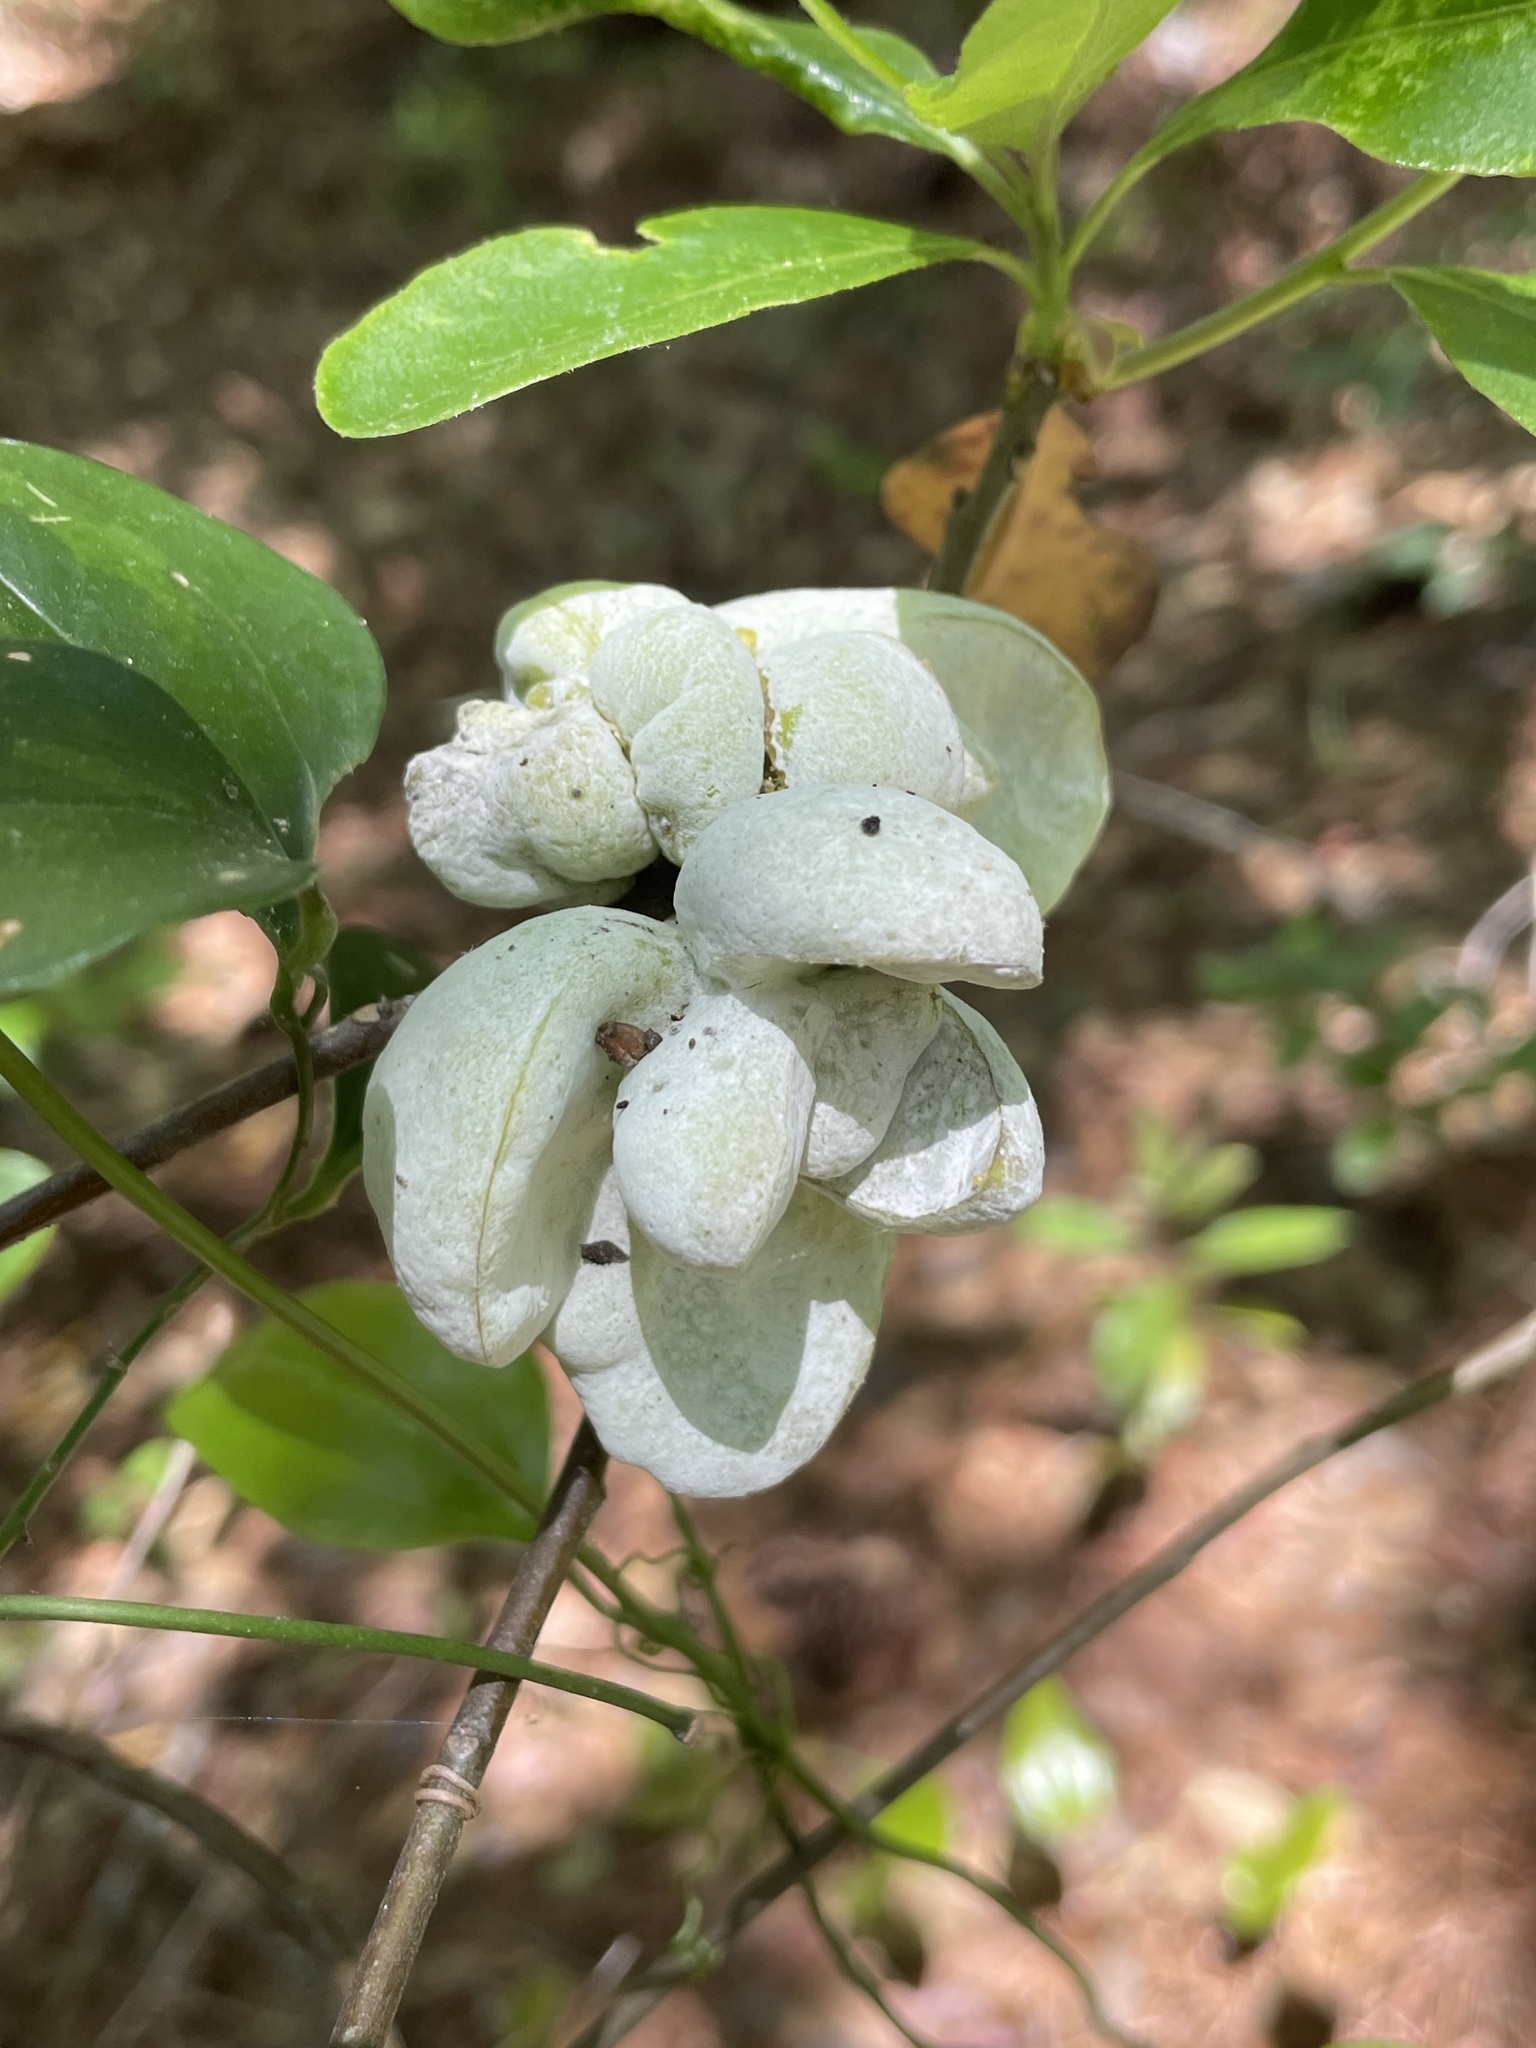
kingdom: Fungi
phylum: Basidiomycota
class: Exobasidiomycetes
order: Exobasidiales
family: Exobasidiaceae
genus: Exobasidium
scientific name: Exobasidium symploci
